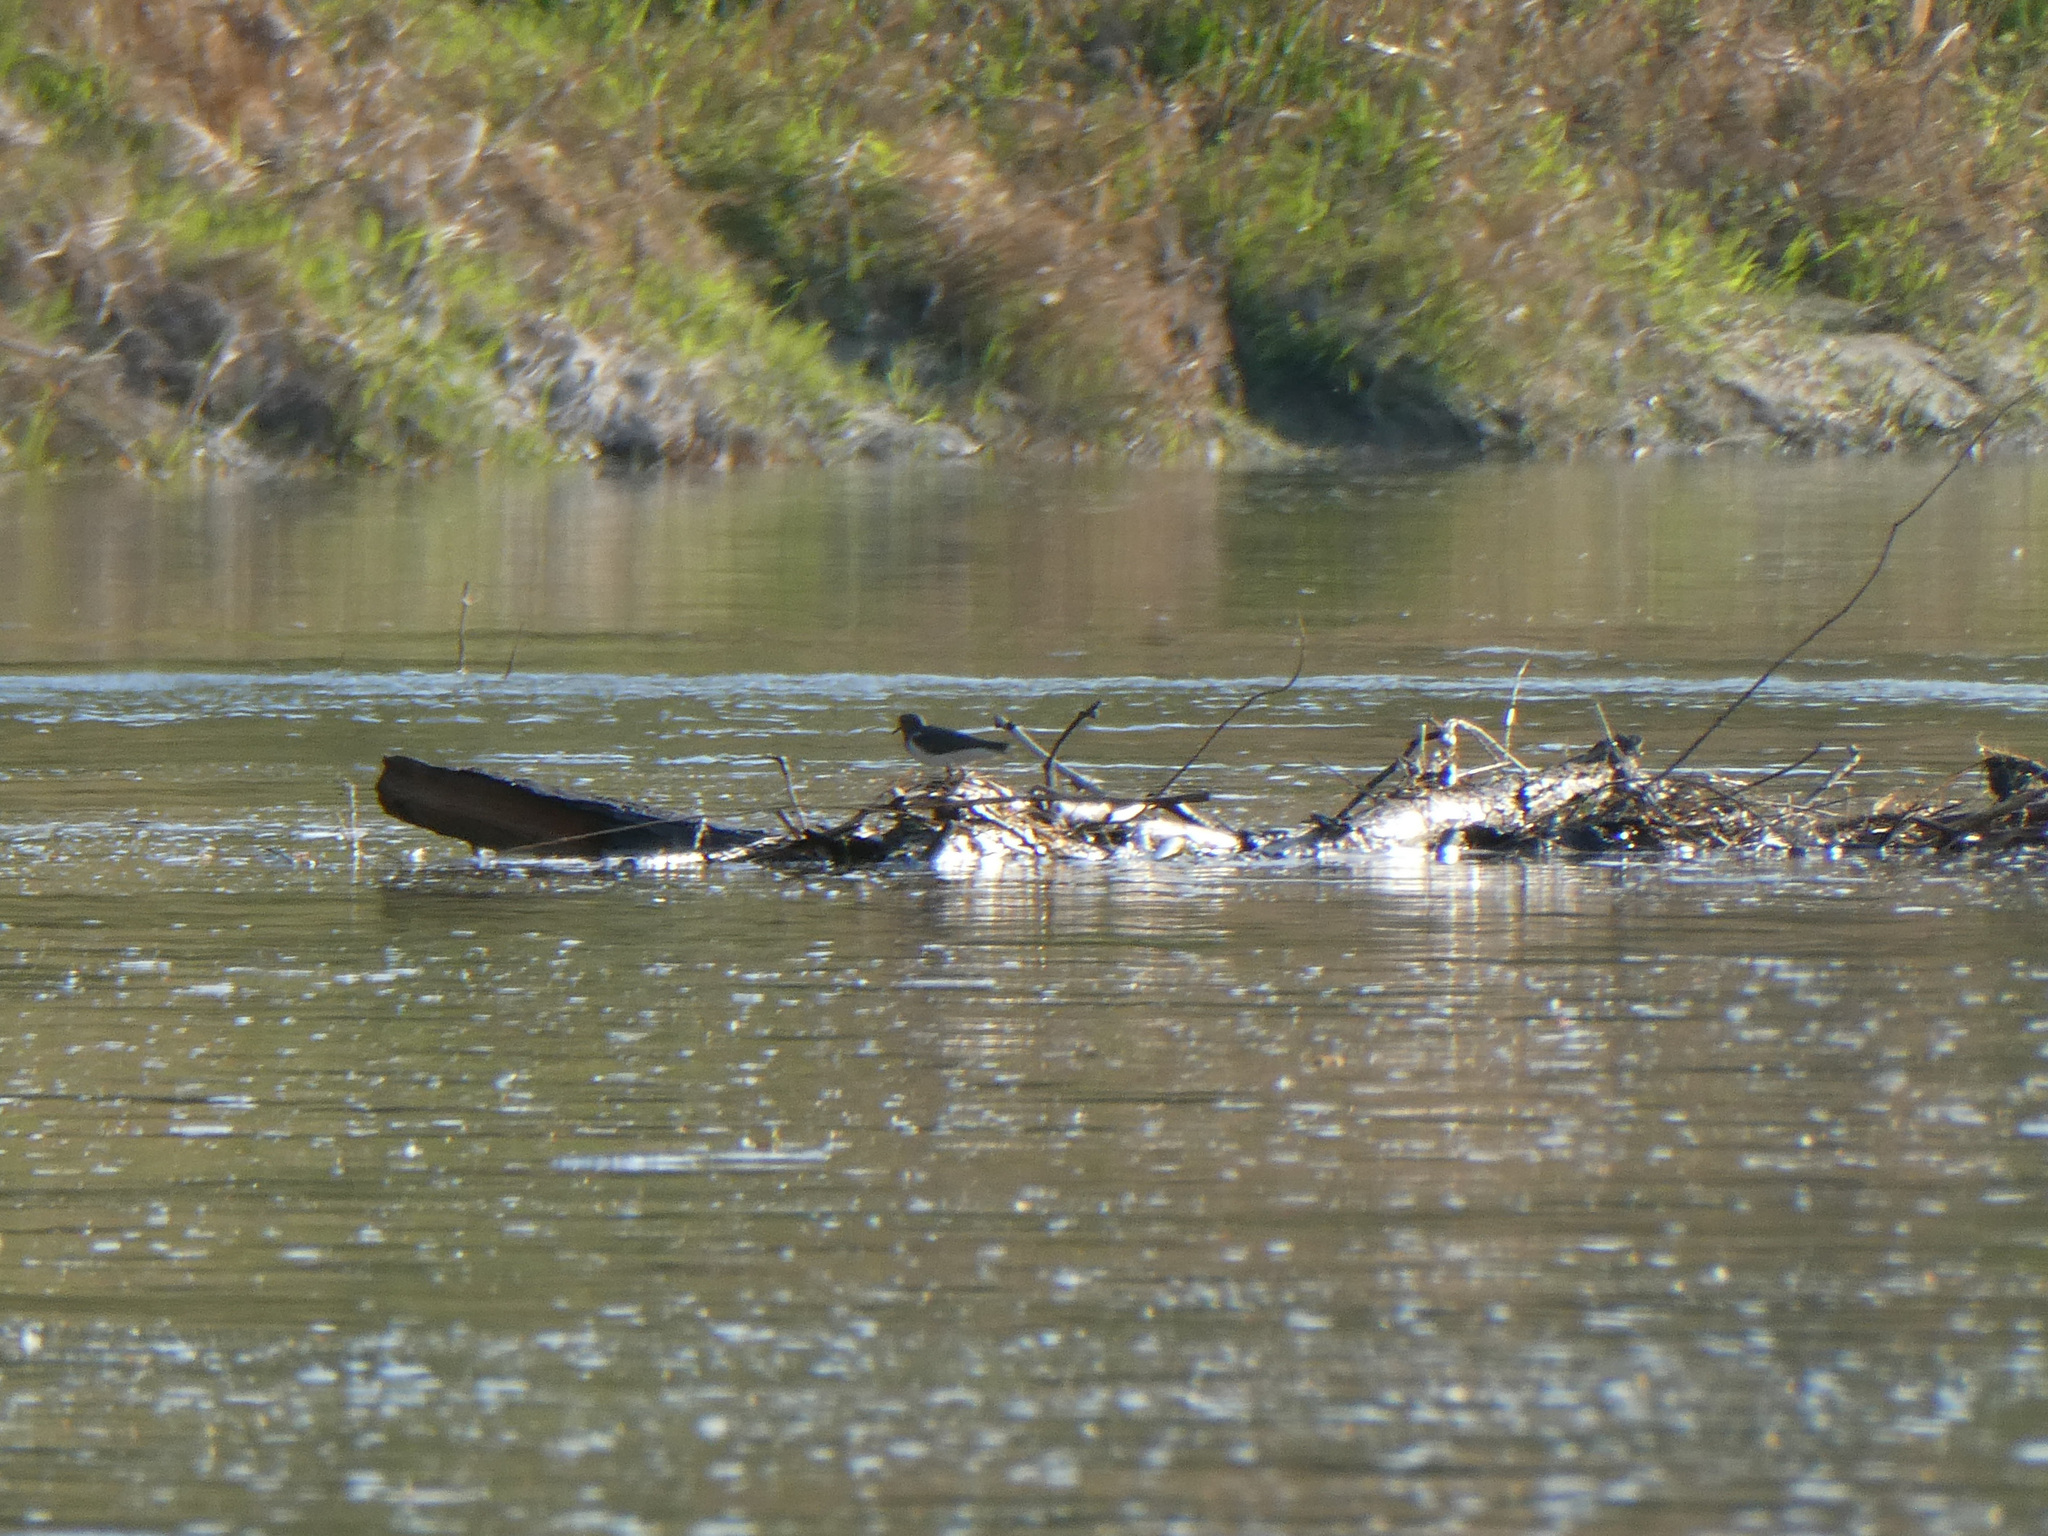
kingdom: Animalia
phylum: Chordata
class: Aves
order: Charadriiformes
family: Scolopacidae
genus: Actitis
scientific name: Actitis hypoleucos
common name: Common sandpiper
